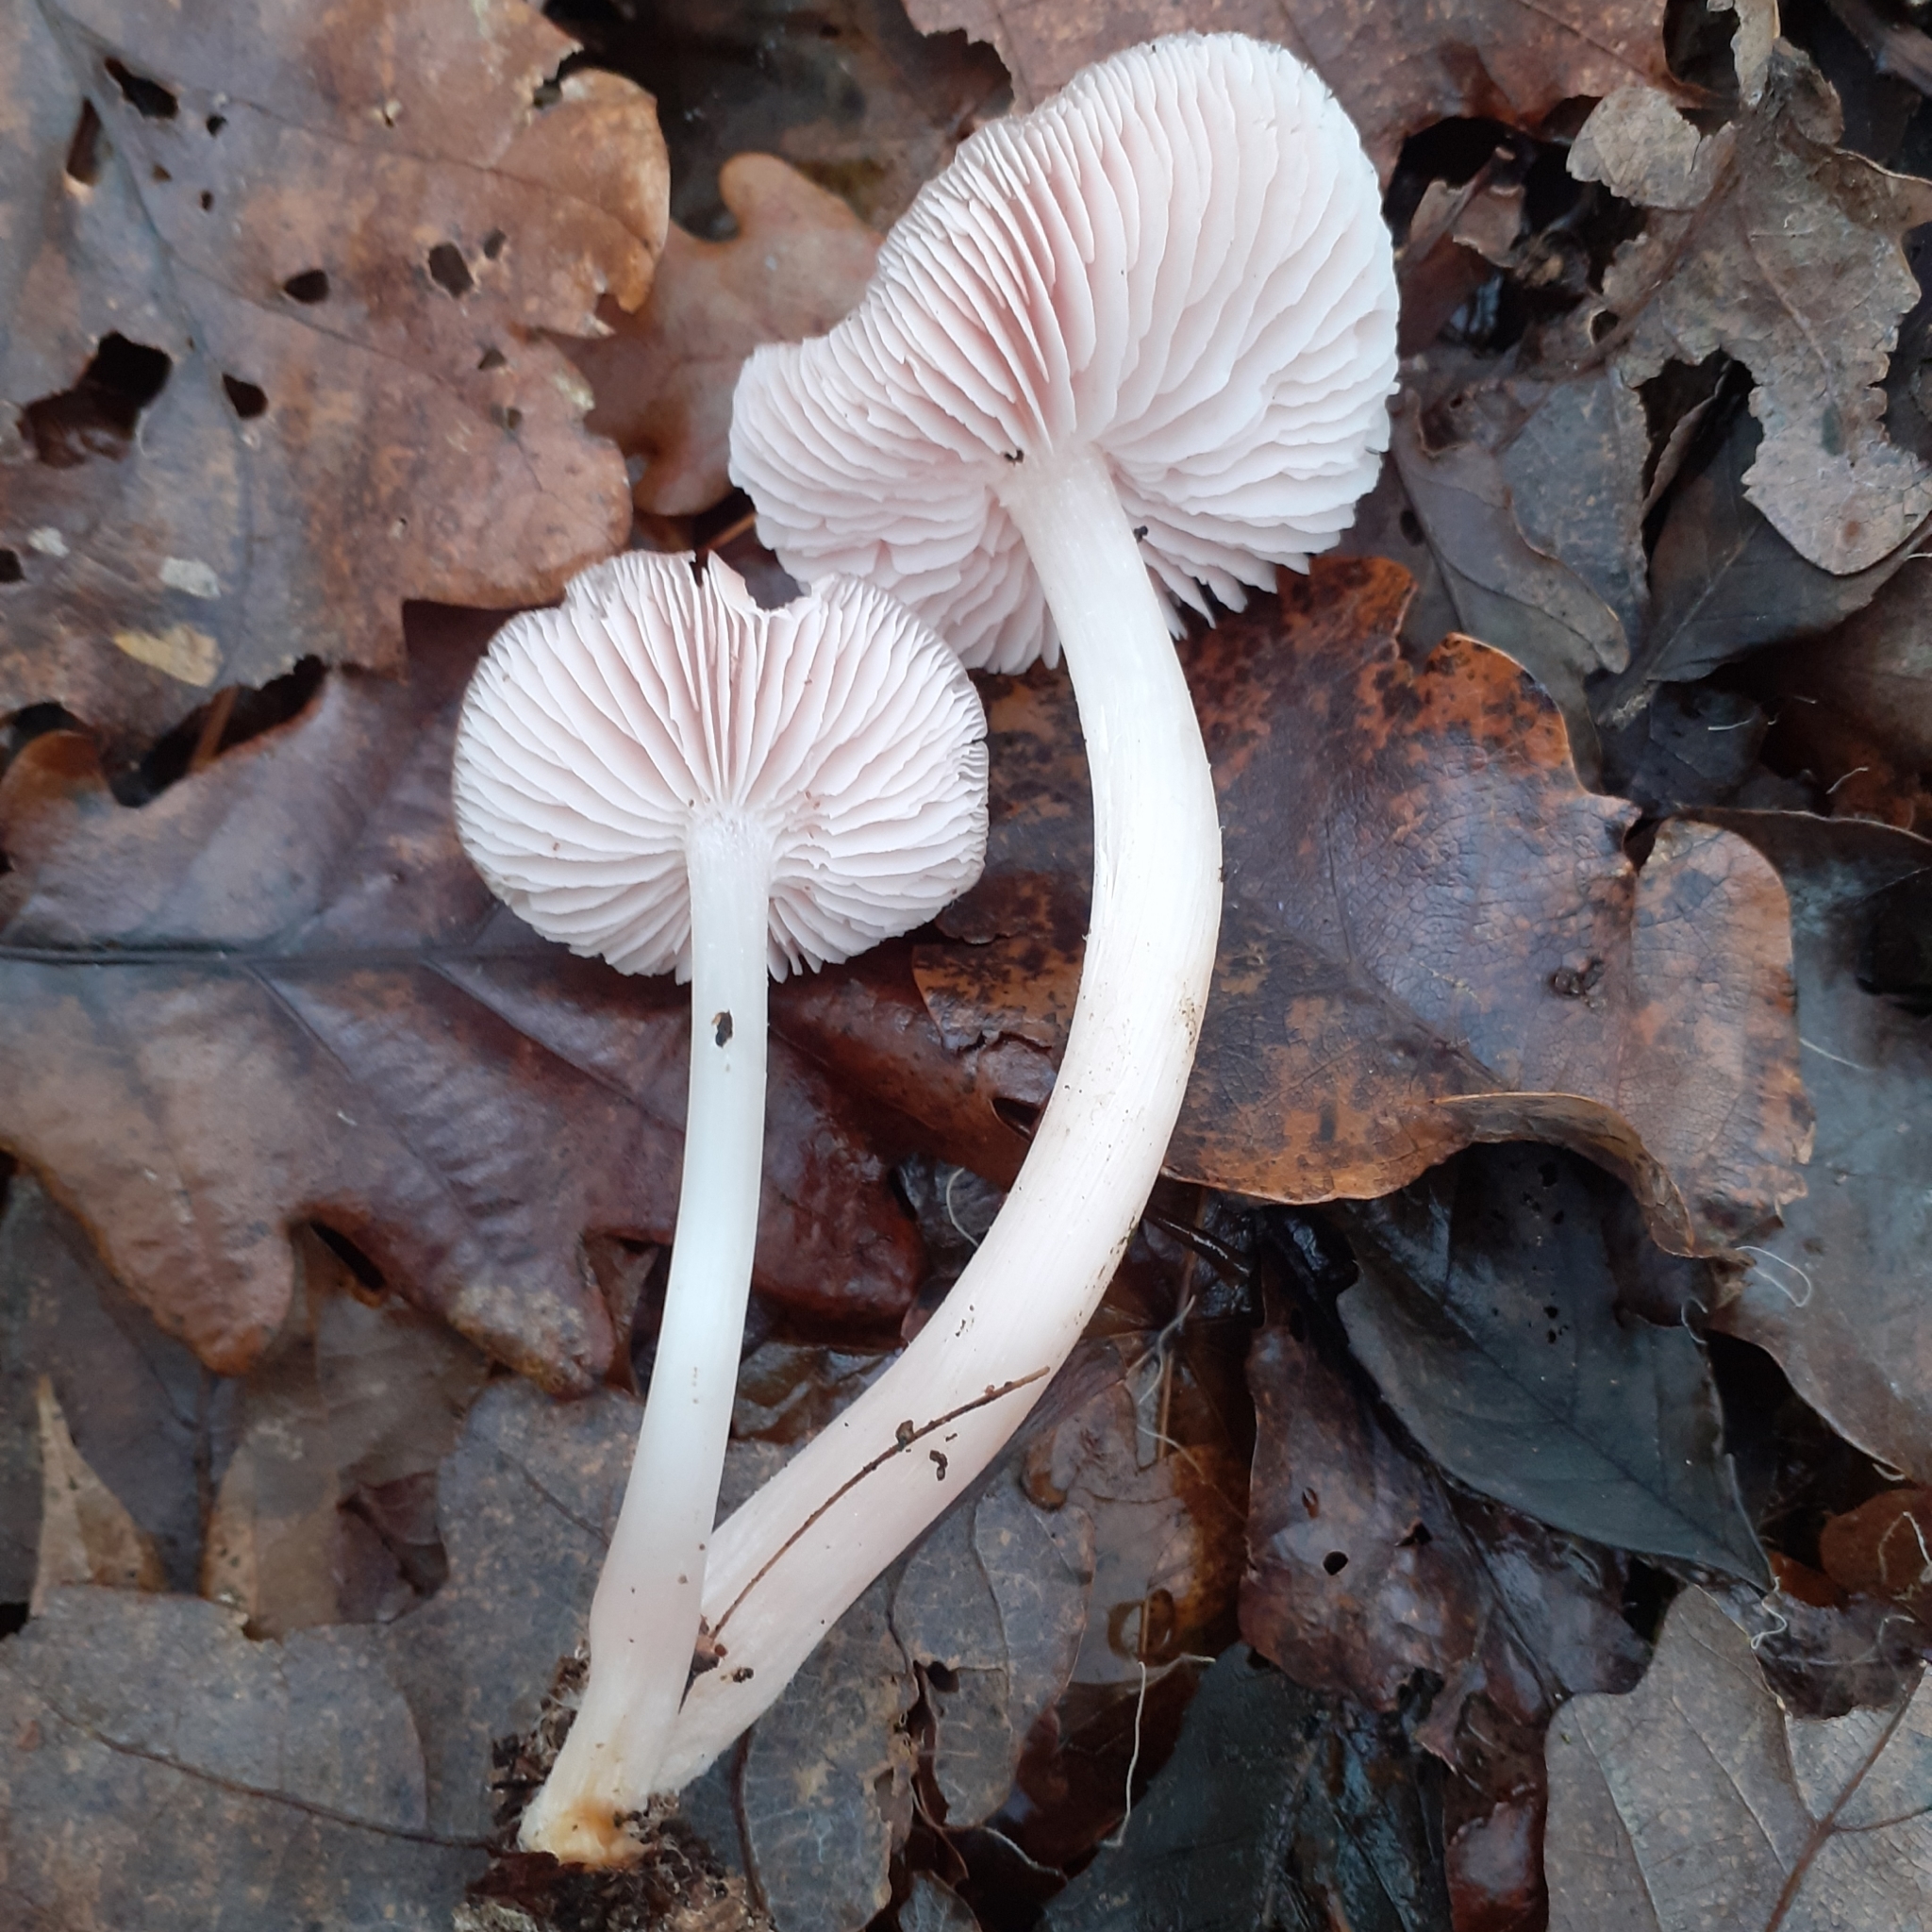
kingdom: Fungi
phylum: Basidiomycota
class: Agaricomycetes
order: Agaricales
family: Mycenaceae
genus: Mycena
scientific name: Mycena rosea
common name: Rosy bonnet
